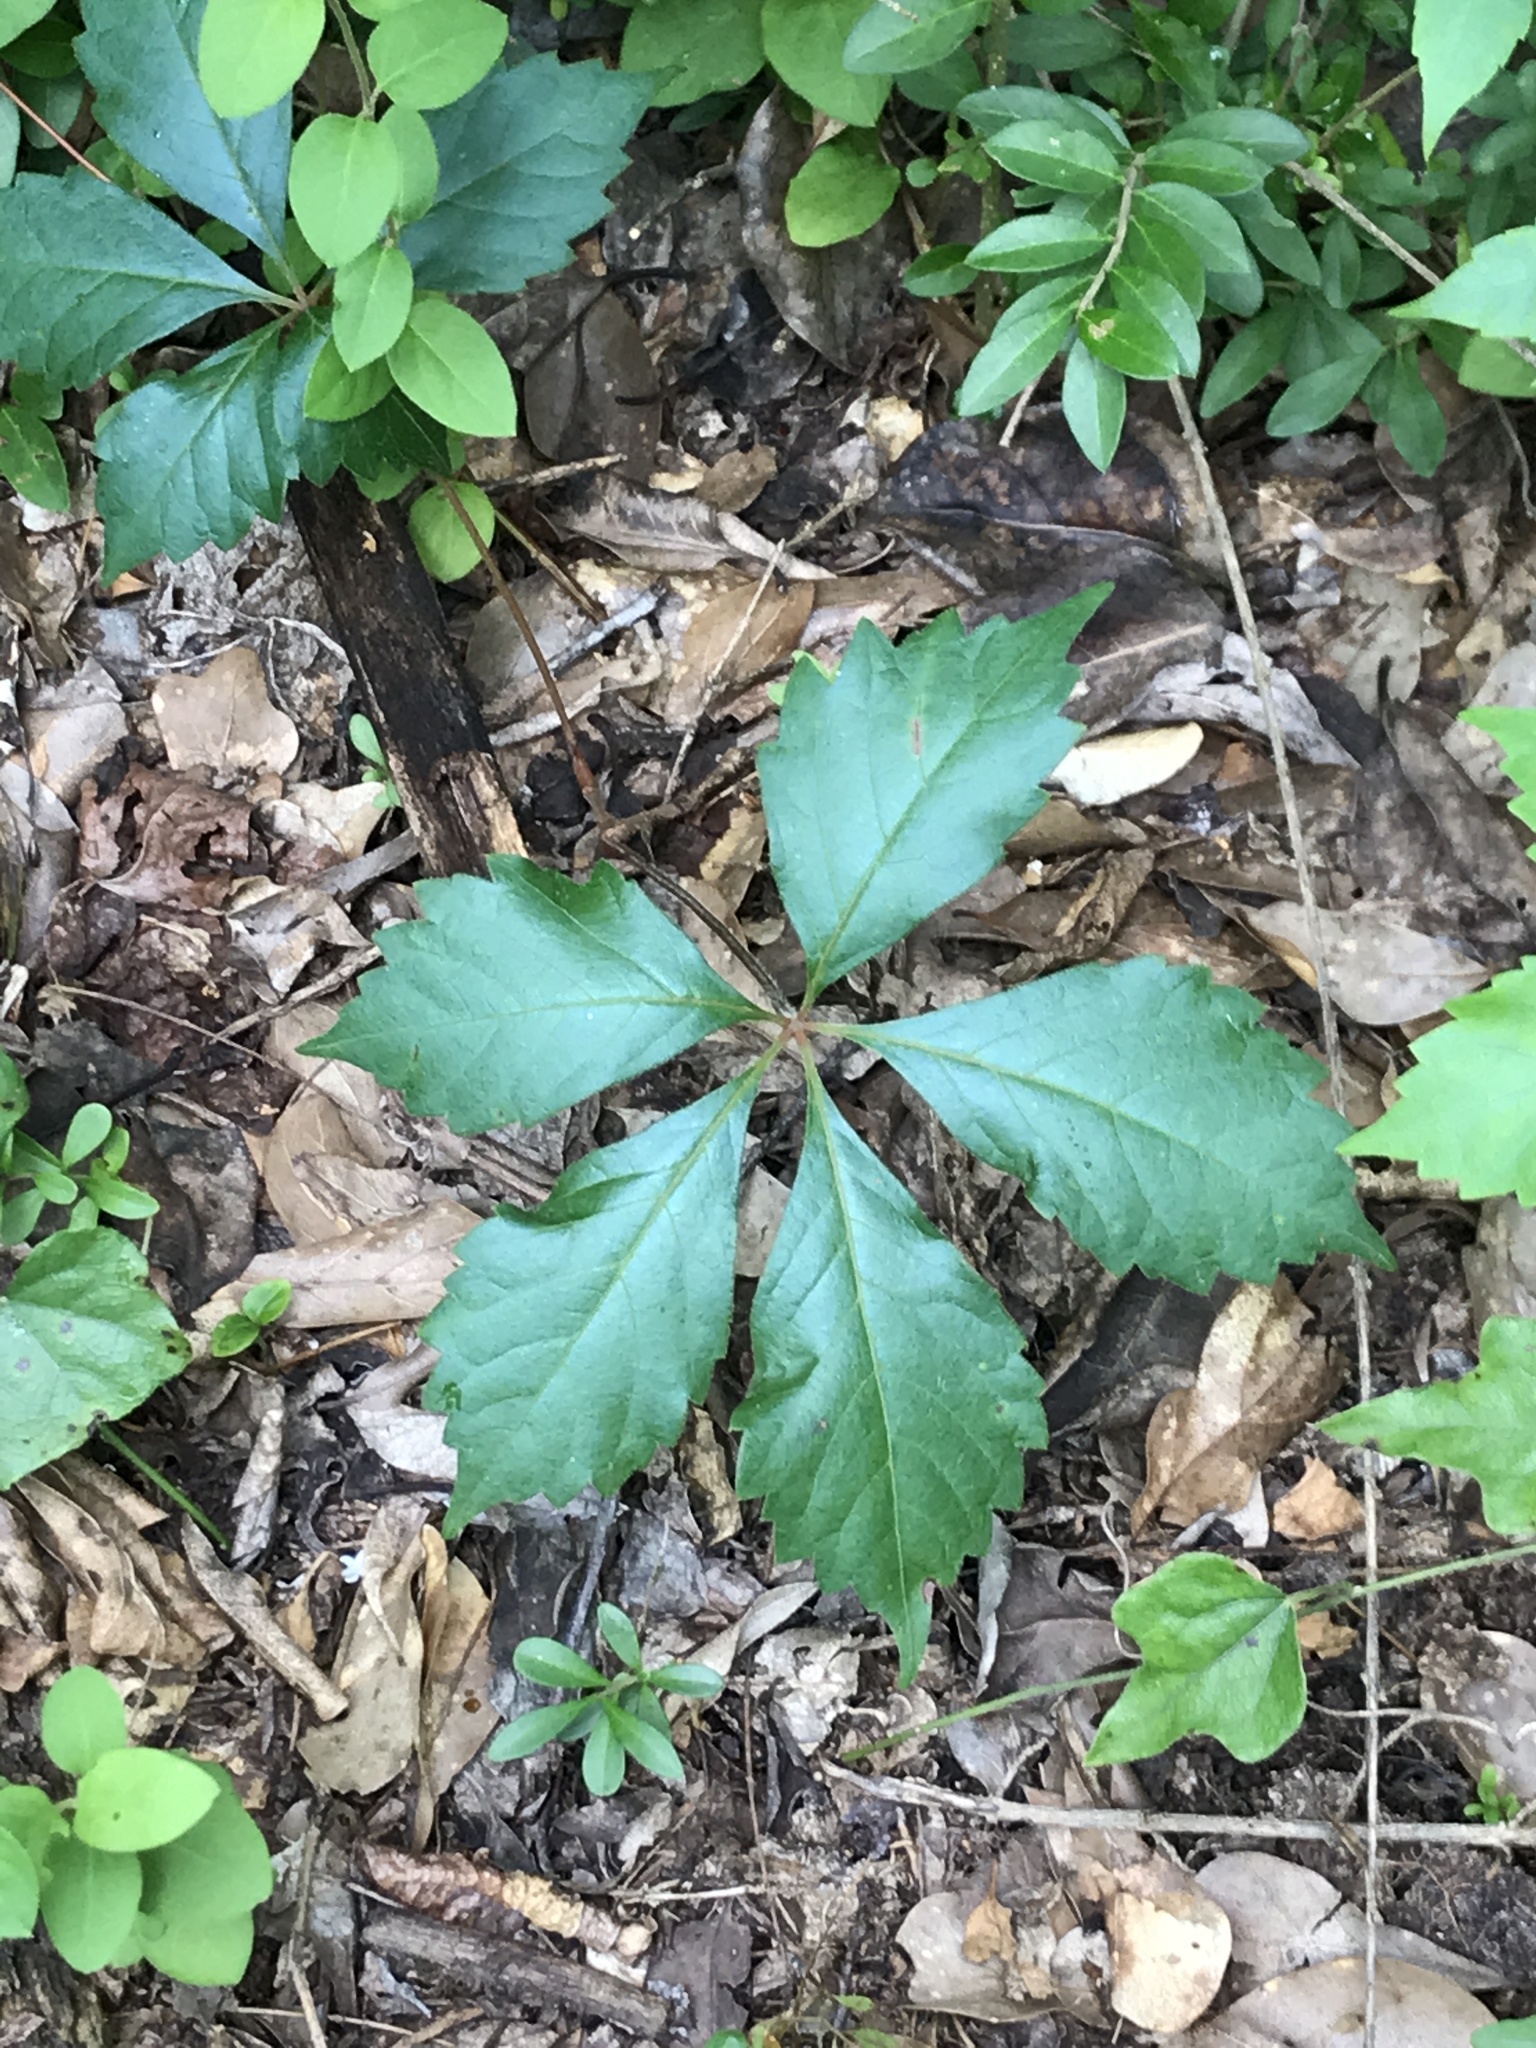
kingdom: Plantae
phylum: Tracheophyta
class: Magnoliopsida
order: Vitales
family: Vitaceae
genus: Parthenocissus
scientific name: Parthenocissus quinquefolia
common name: Virginia-creeper
